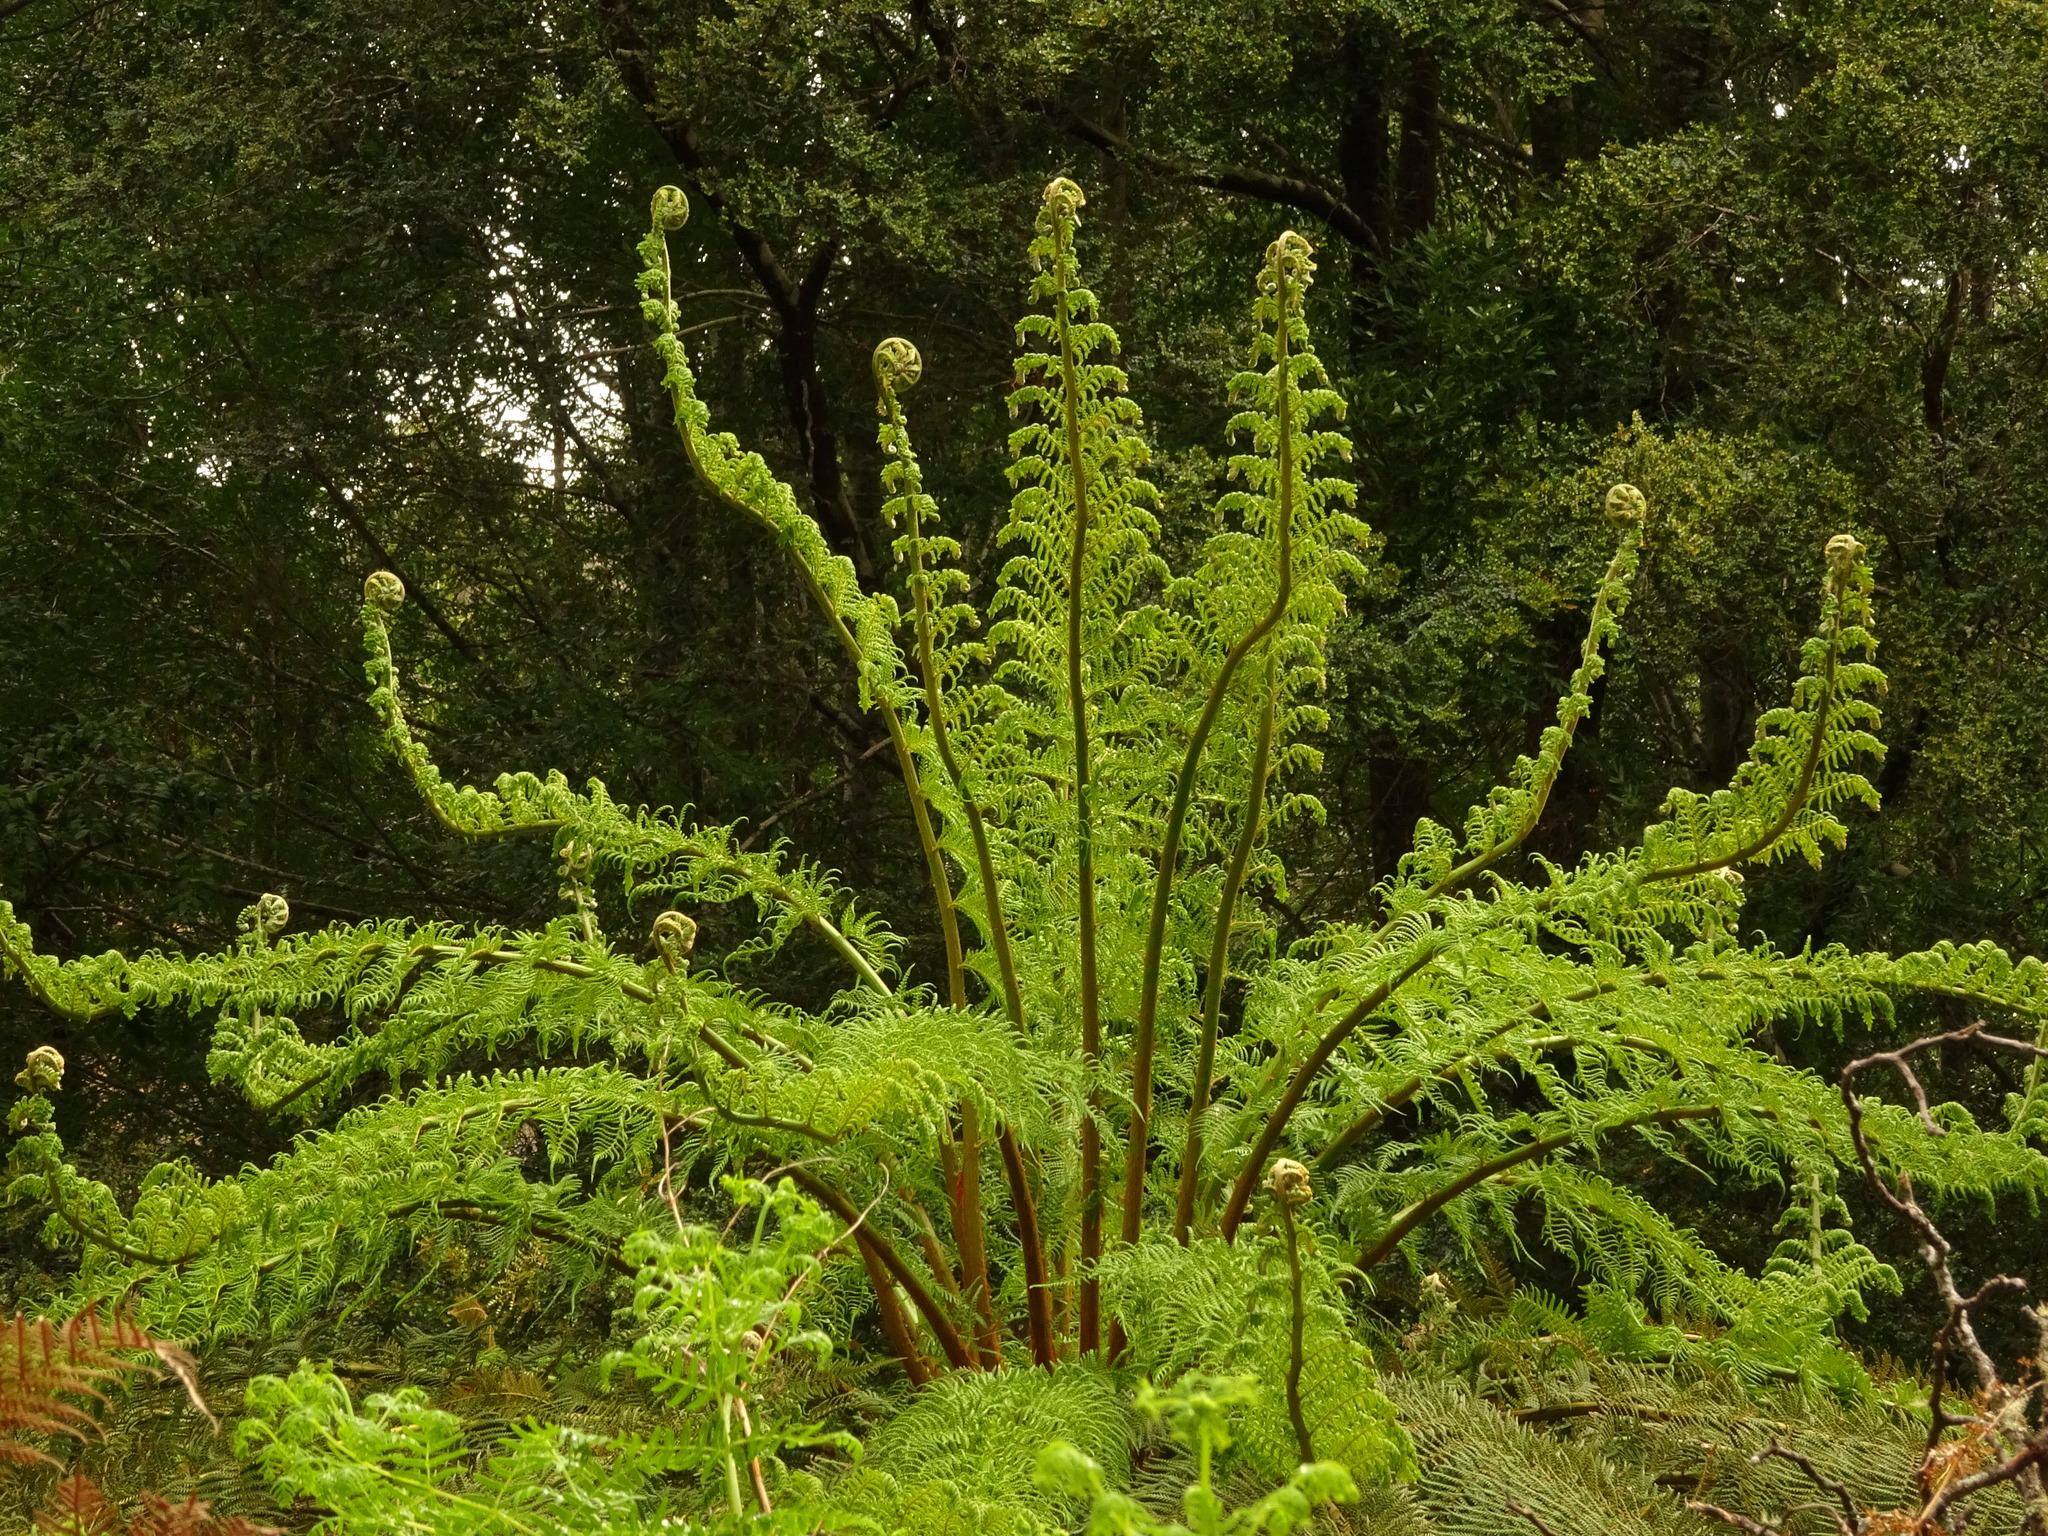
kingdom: Plantae
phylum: Tracheophyta
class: Polypodiopsida
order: Cyatheales
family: Dicksoniaceae
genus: Dicksonia
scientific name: Dicksonia antarctica
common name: Australian treefern
